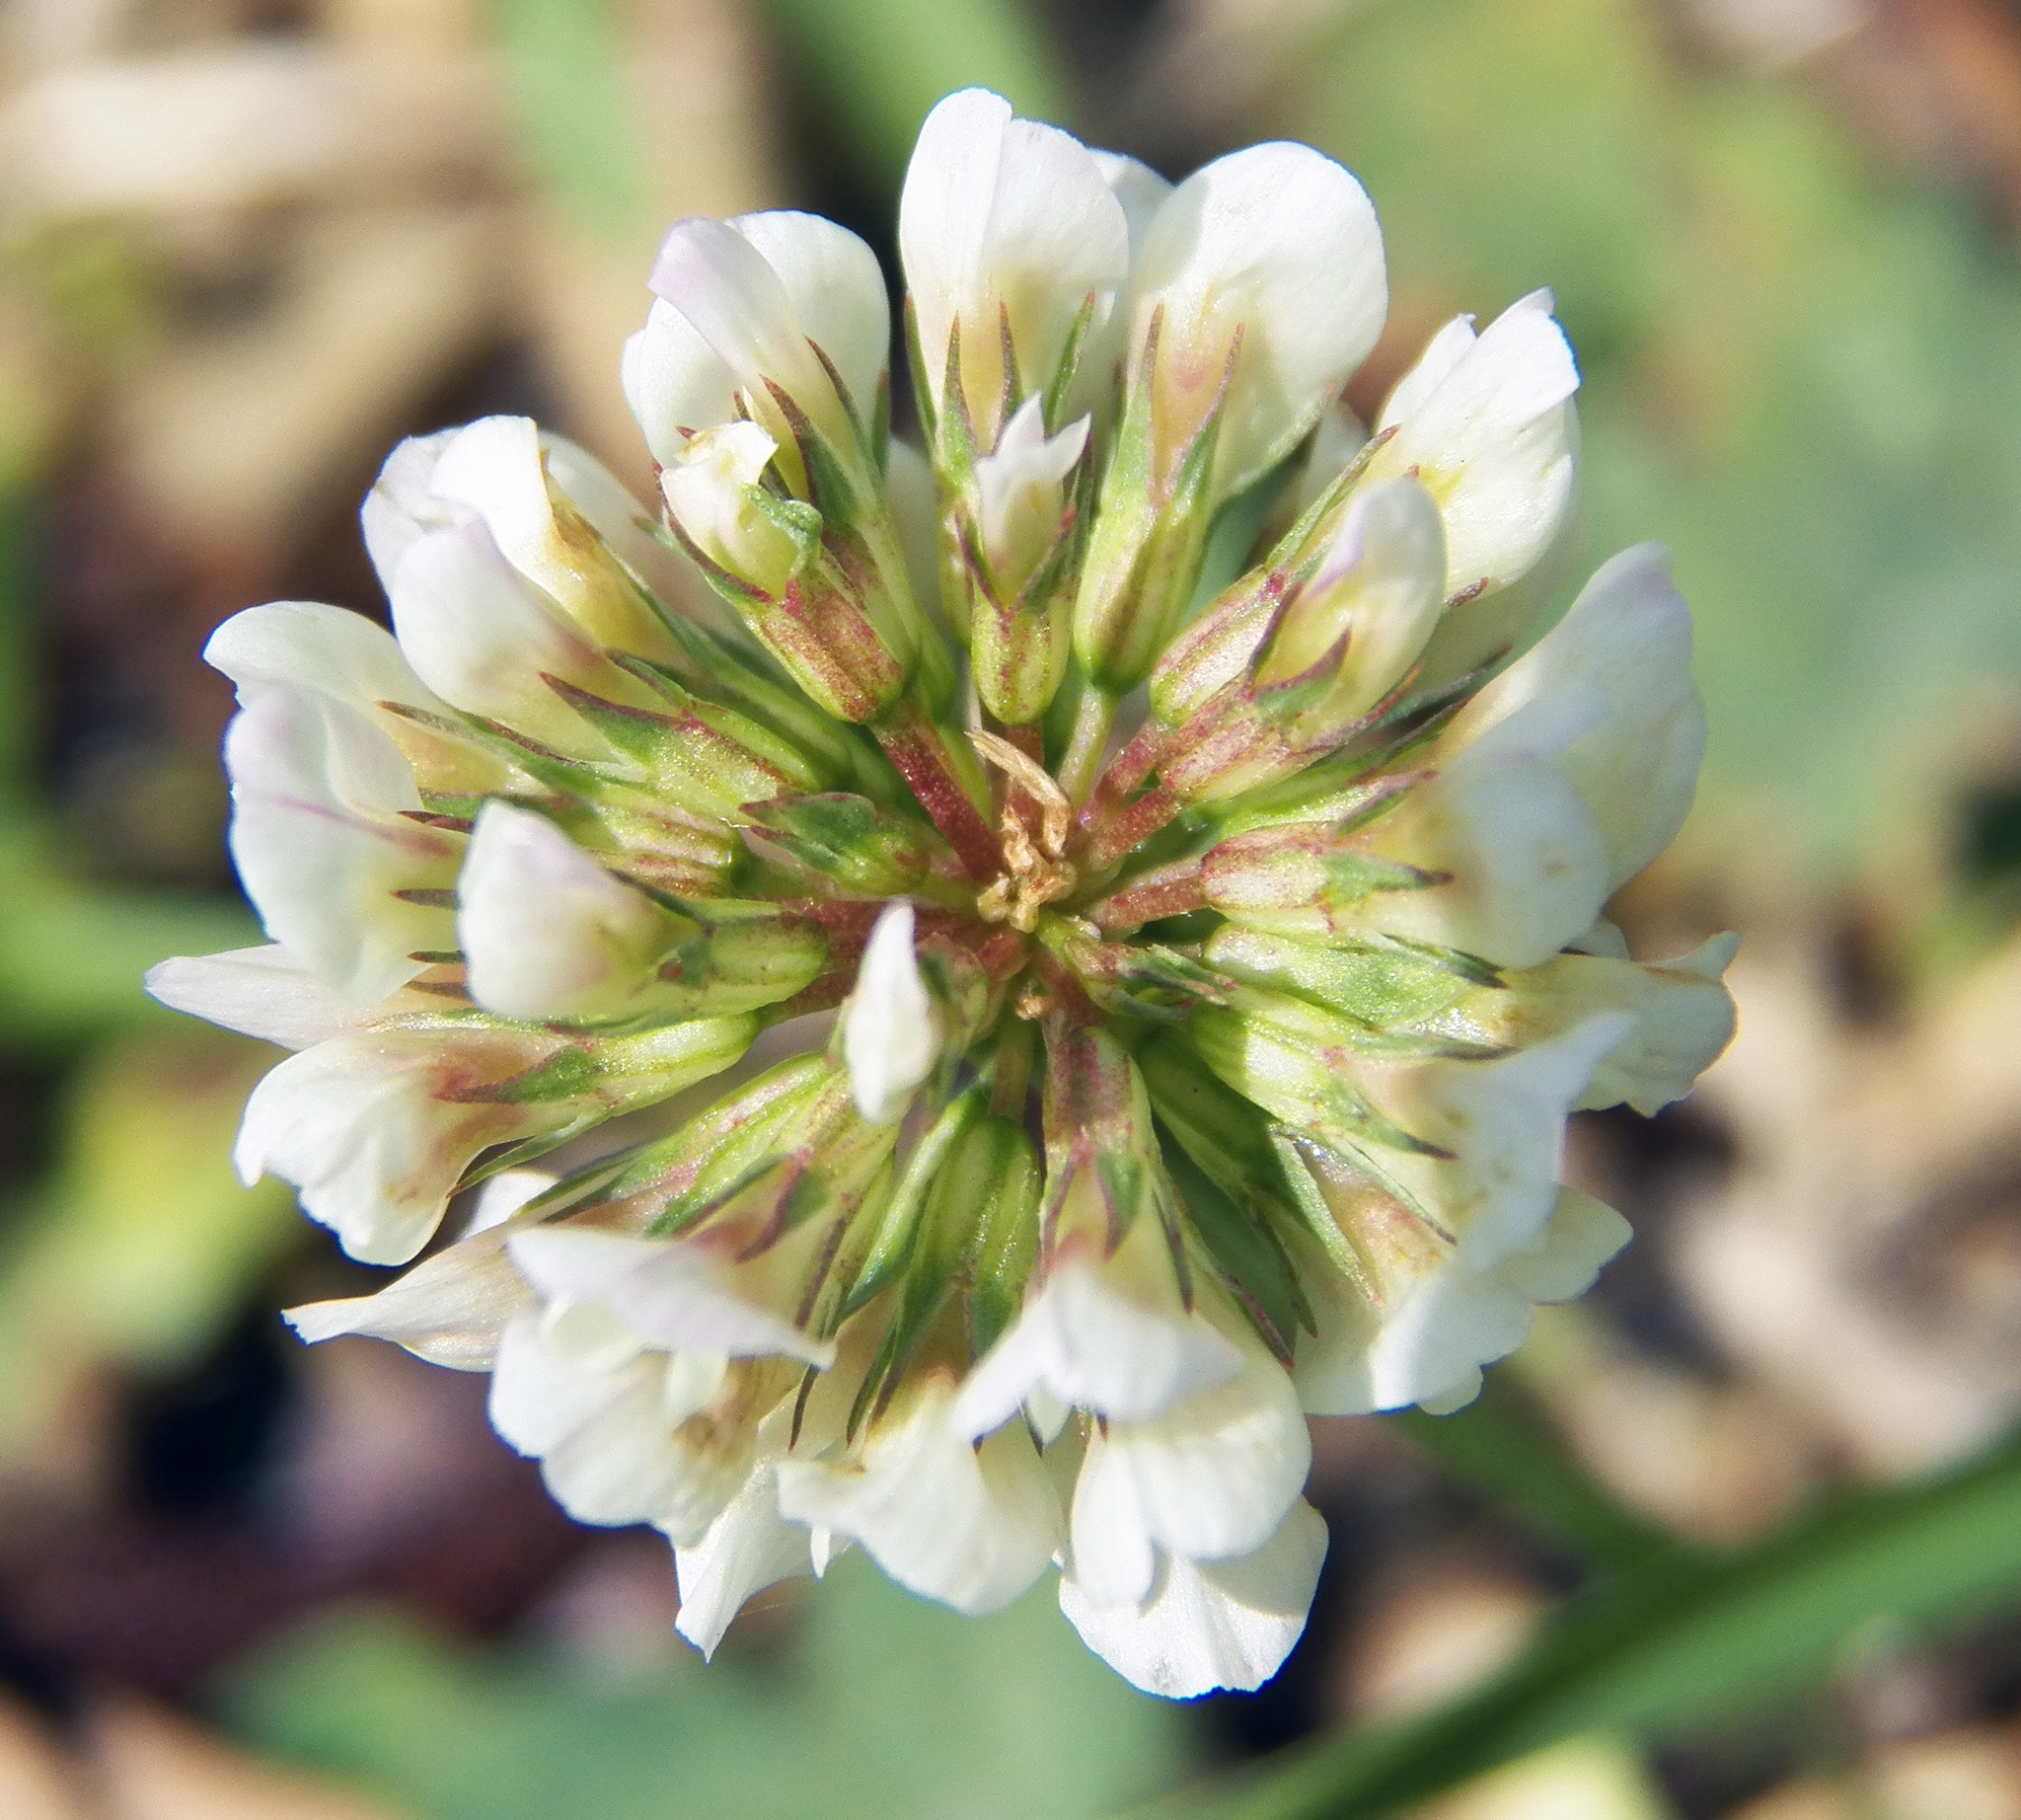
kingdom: Plantae
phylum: Tracheophyta
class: Magnoliopsida
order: Fabales
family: Fabaceae
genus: Trifolium
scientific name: Trifolium repens
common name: White clover
